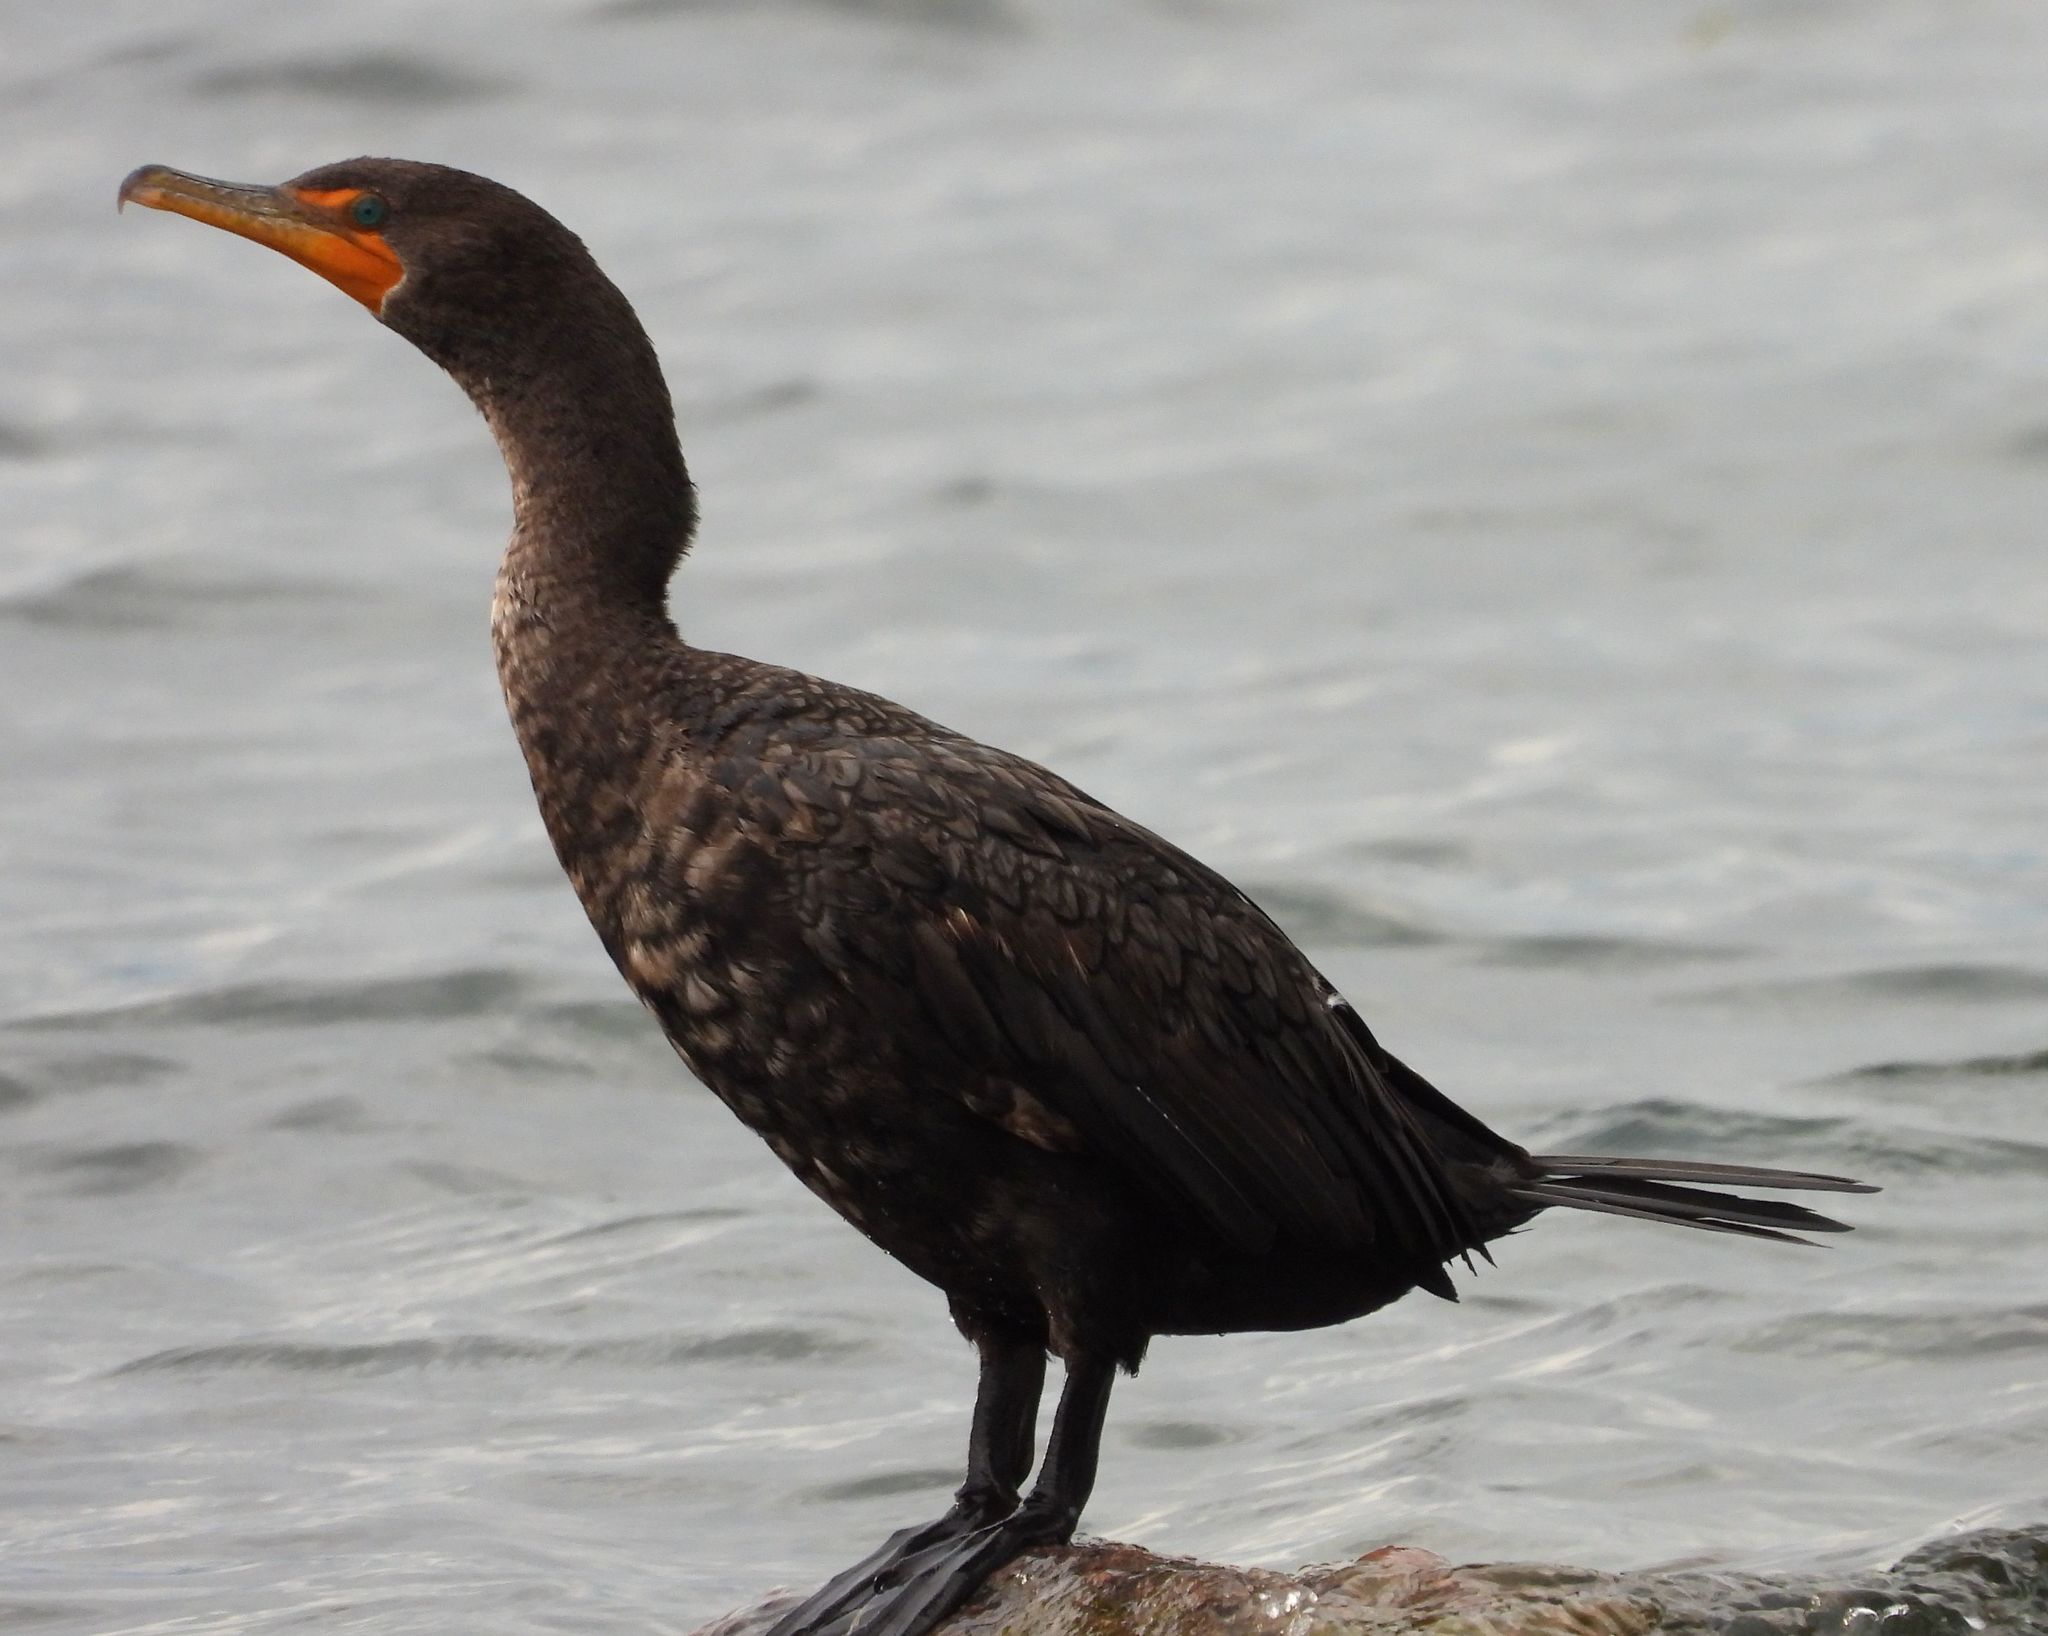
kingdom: Animalia
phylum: Chordata
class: Aves
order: Suliformes
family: Phalacrocoracidae
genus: Phalacrocorax
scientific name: Phalacrocorax auritus
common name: Double-crested cormorant
